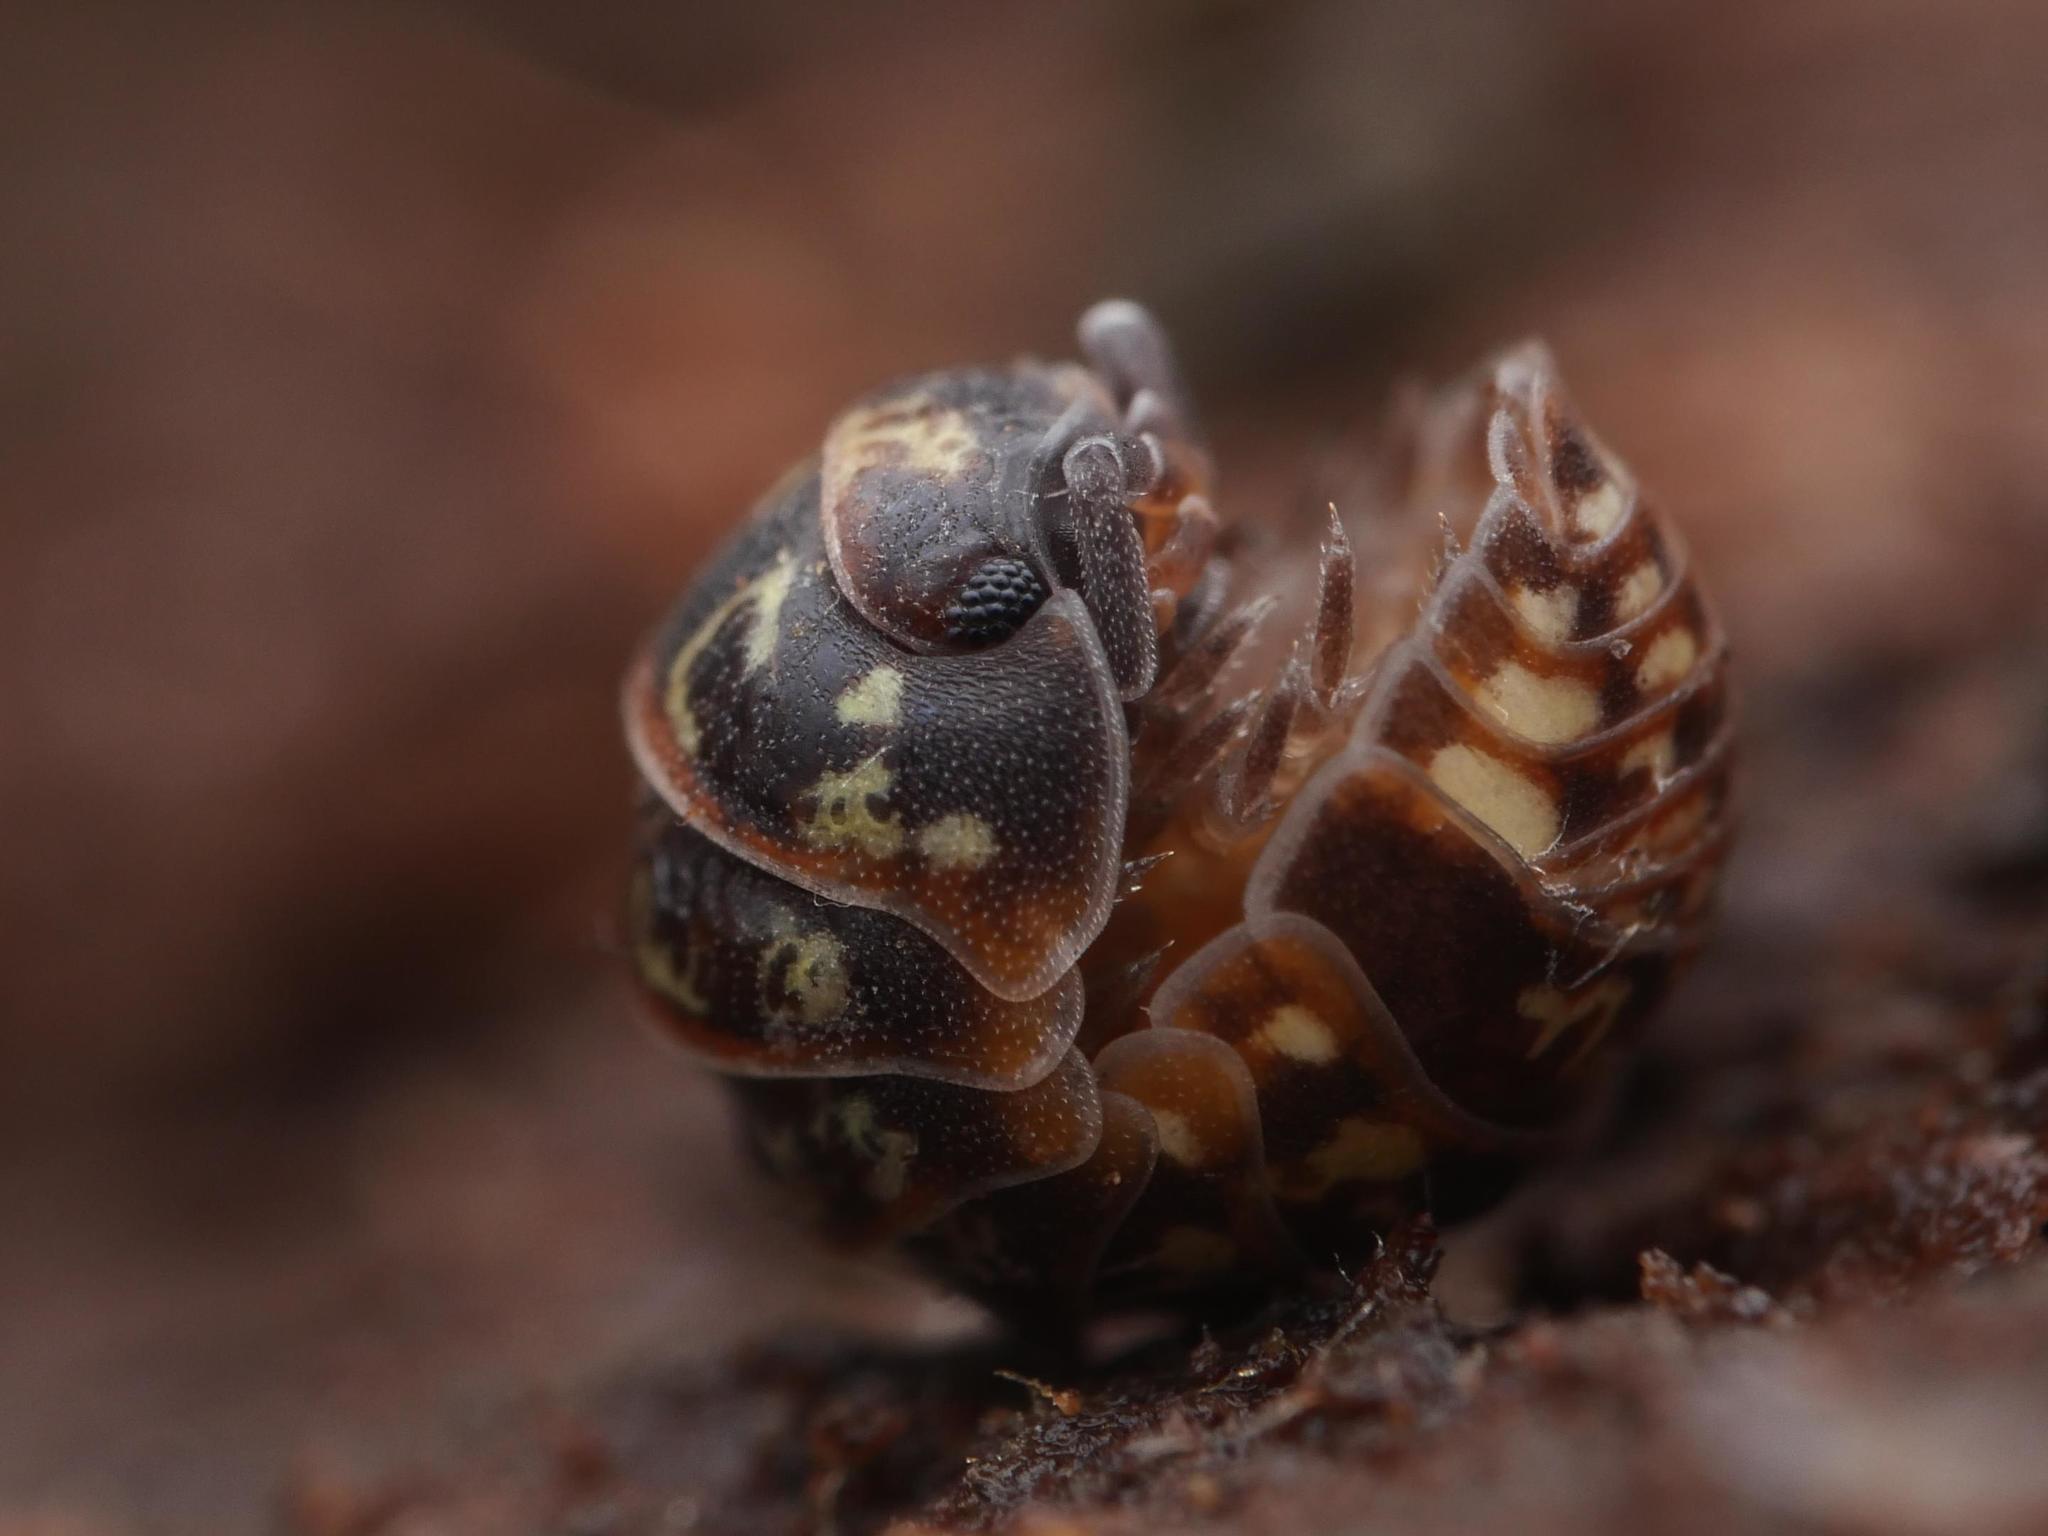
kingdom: Animalia
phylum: Arthropoda
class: Malacostraca
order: Isopoda
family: Armadillidiidae
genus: Armadillidium
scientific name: Armadillidium pulchellum
